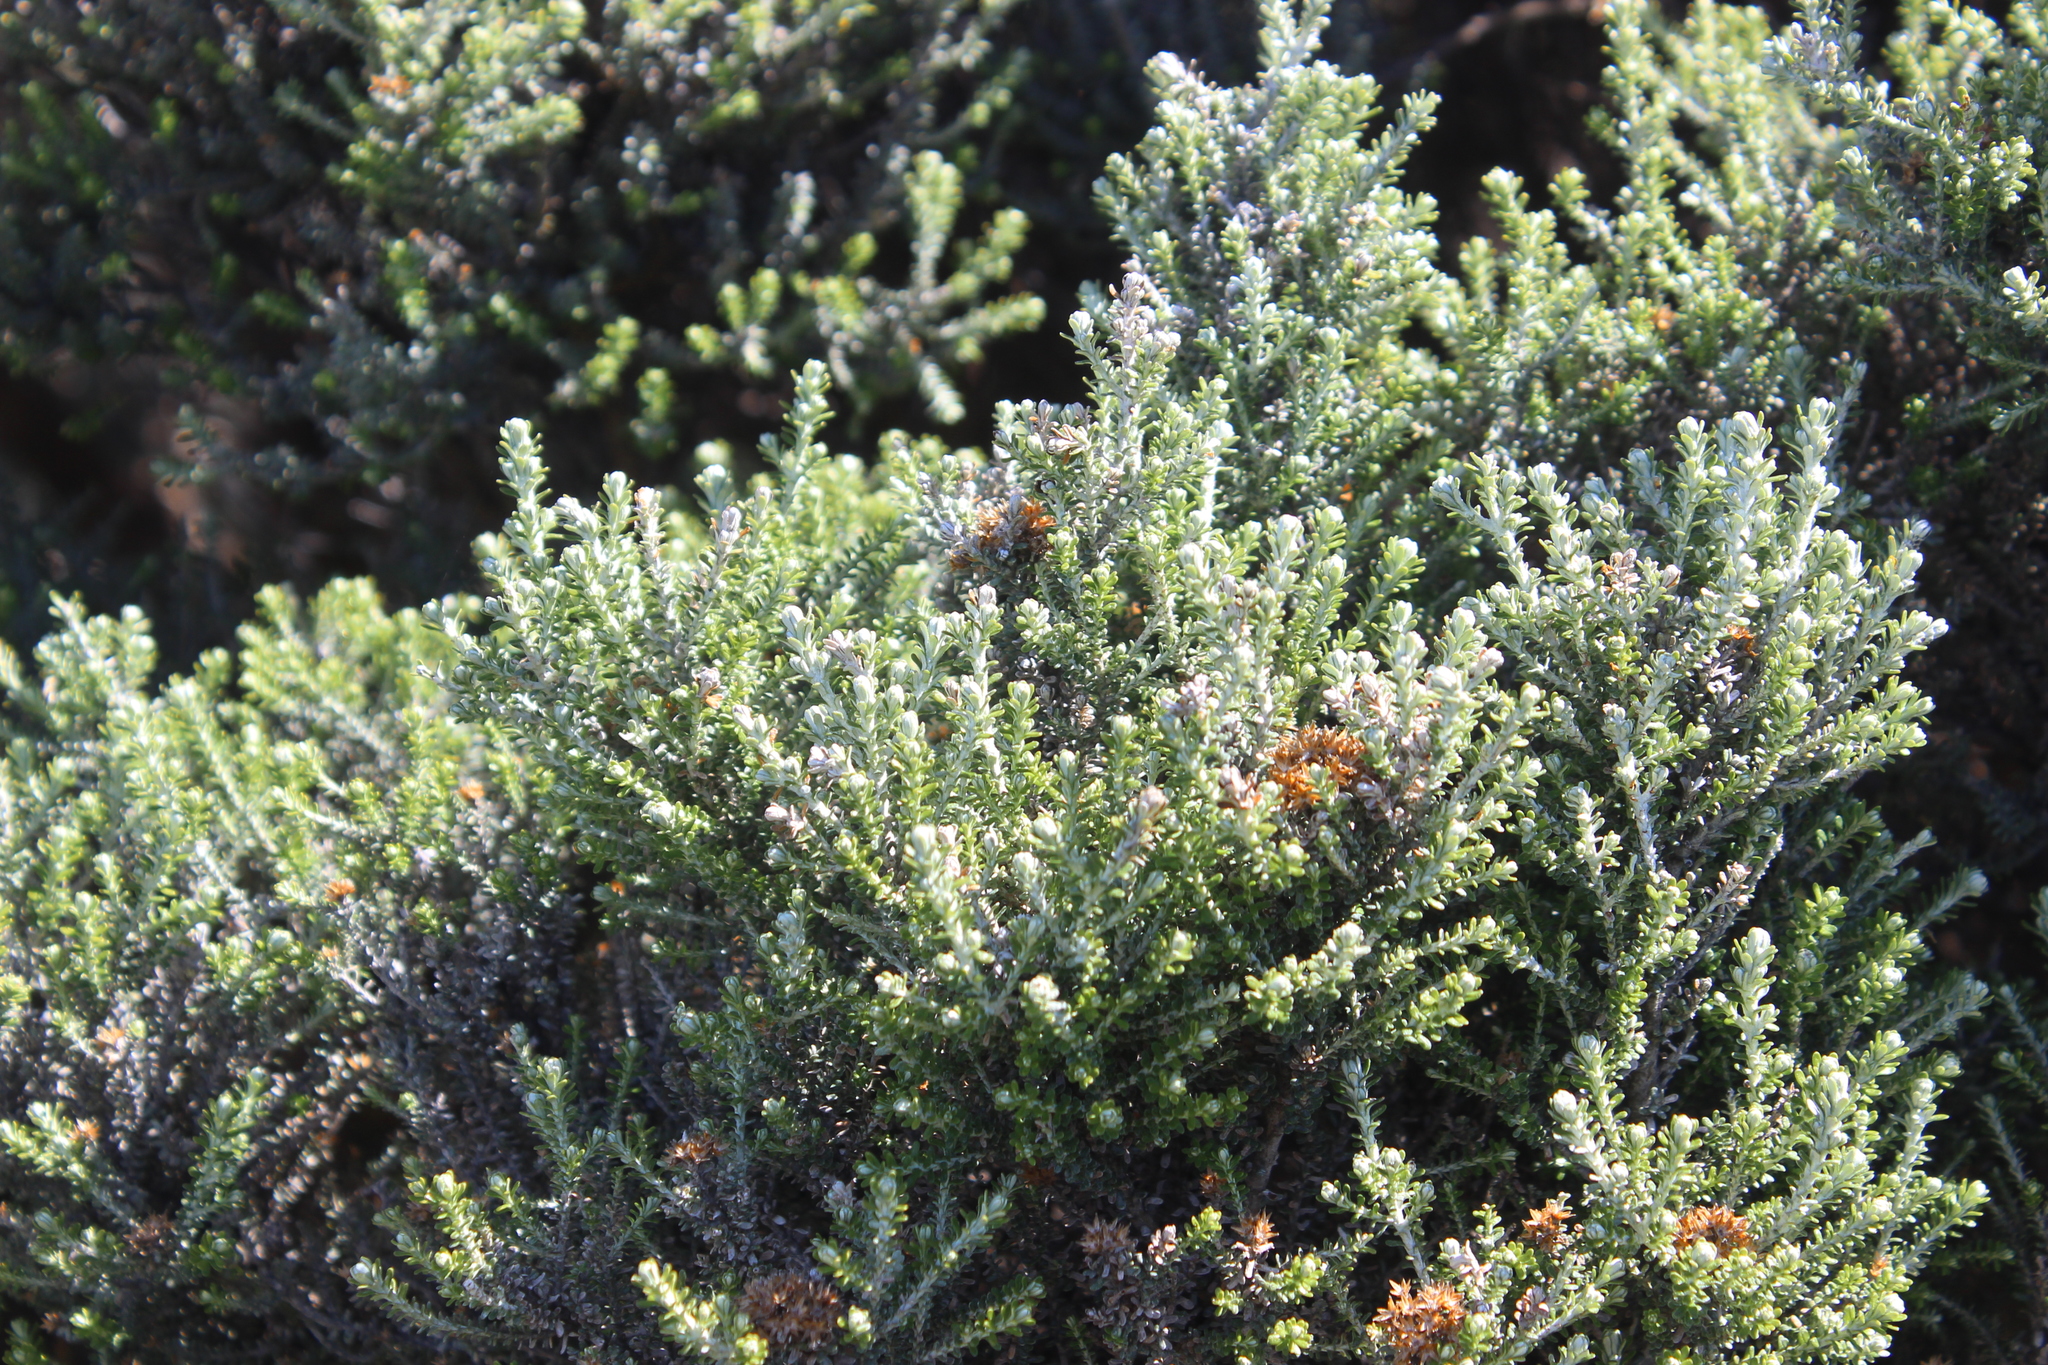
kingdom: Plantae
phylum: Tracheophyta
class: Magnoliopsida
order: Asterales
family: Asteraceae
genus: Ozothamnus
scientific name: Ozothamnus leptophyllus
